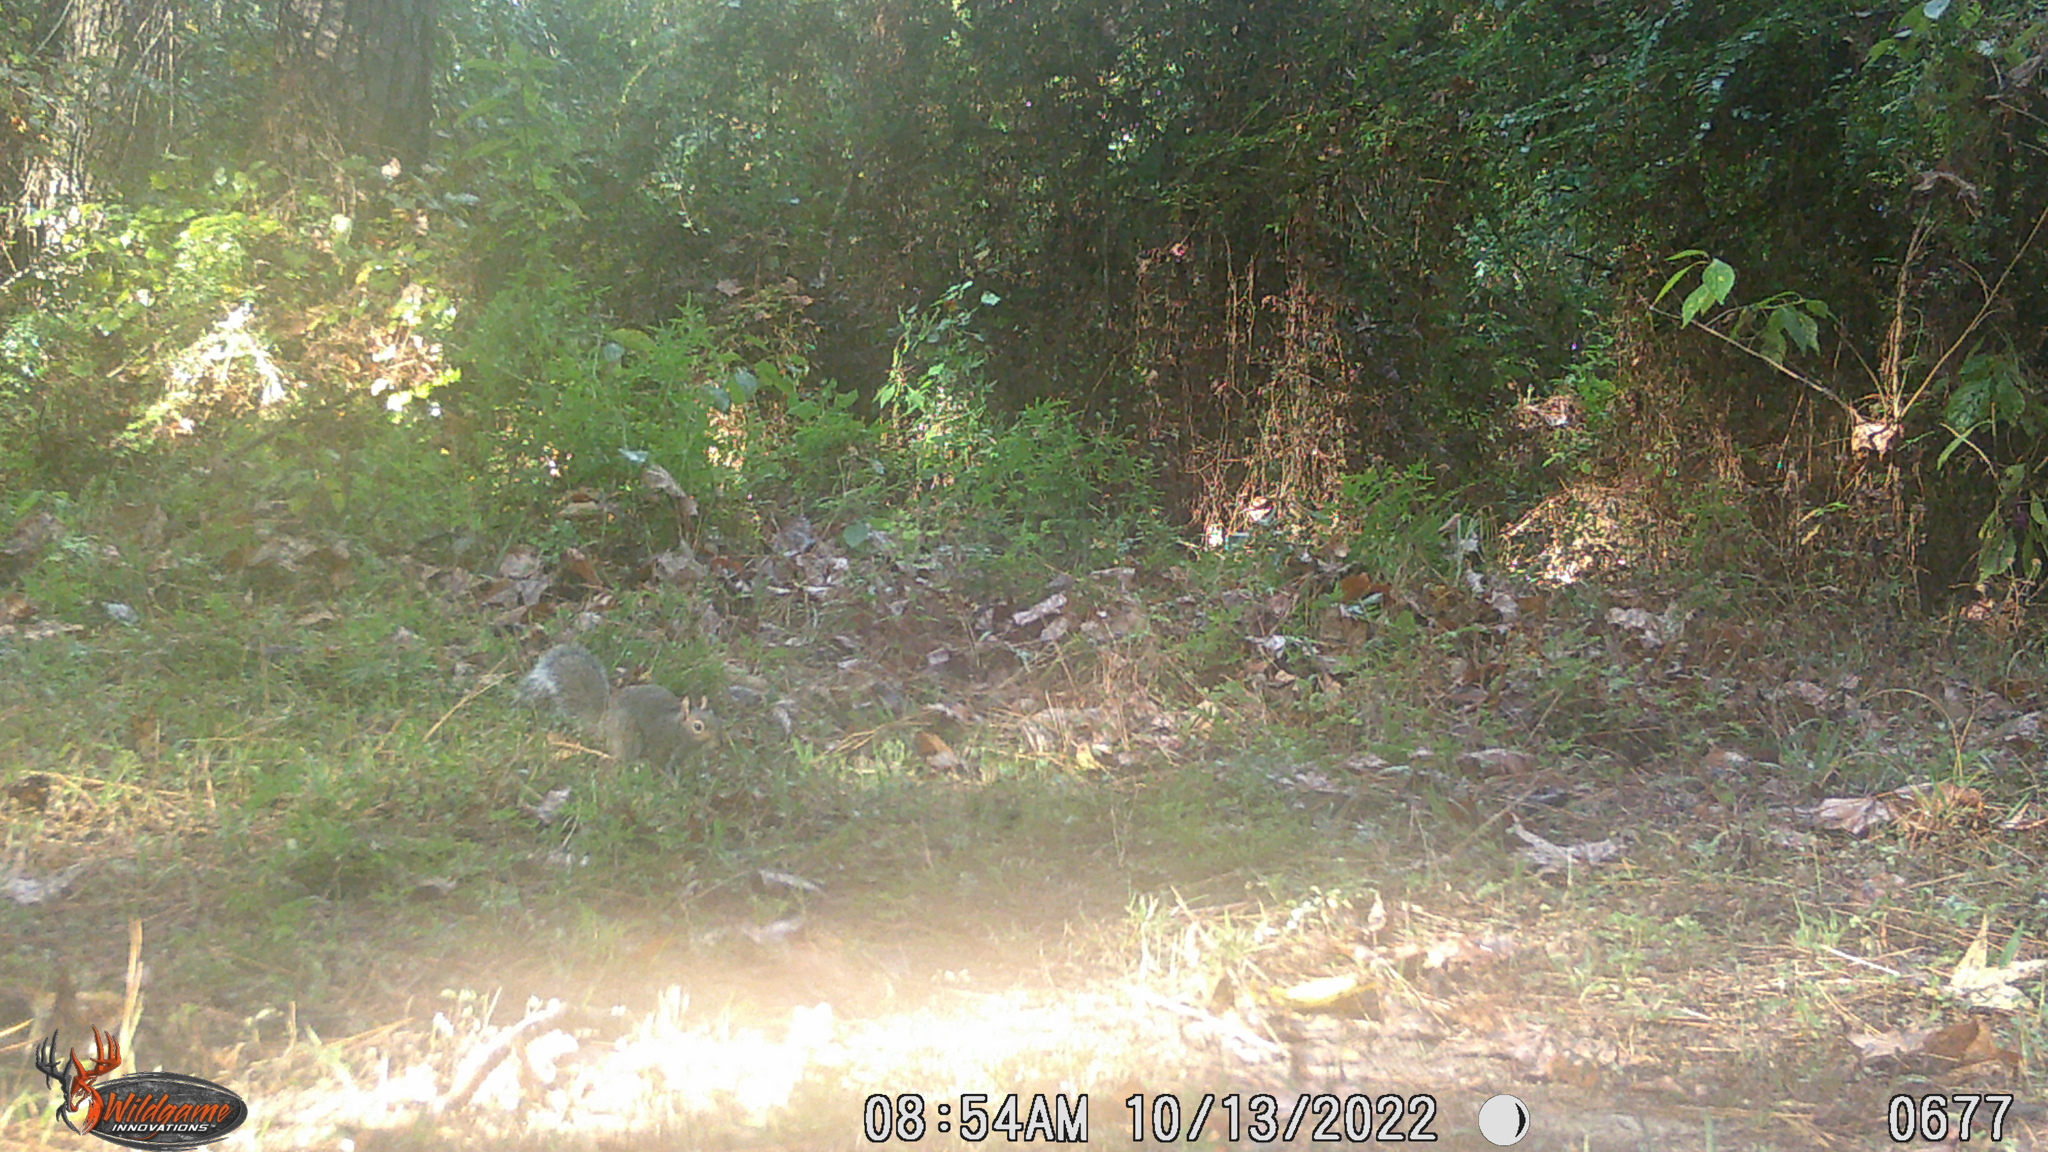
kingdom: Animalia
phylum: Chordata
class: Mammalia
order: Rodentia
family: Sciuridae
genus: Sciurus
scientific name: Sciurus carolinensis
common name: Eastern gray squirrel
